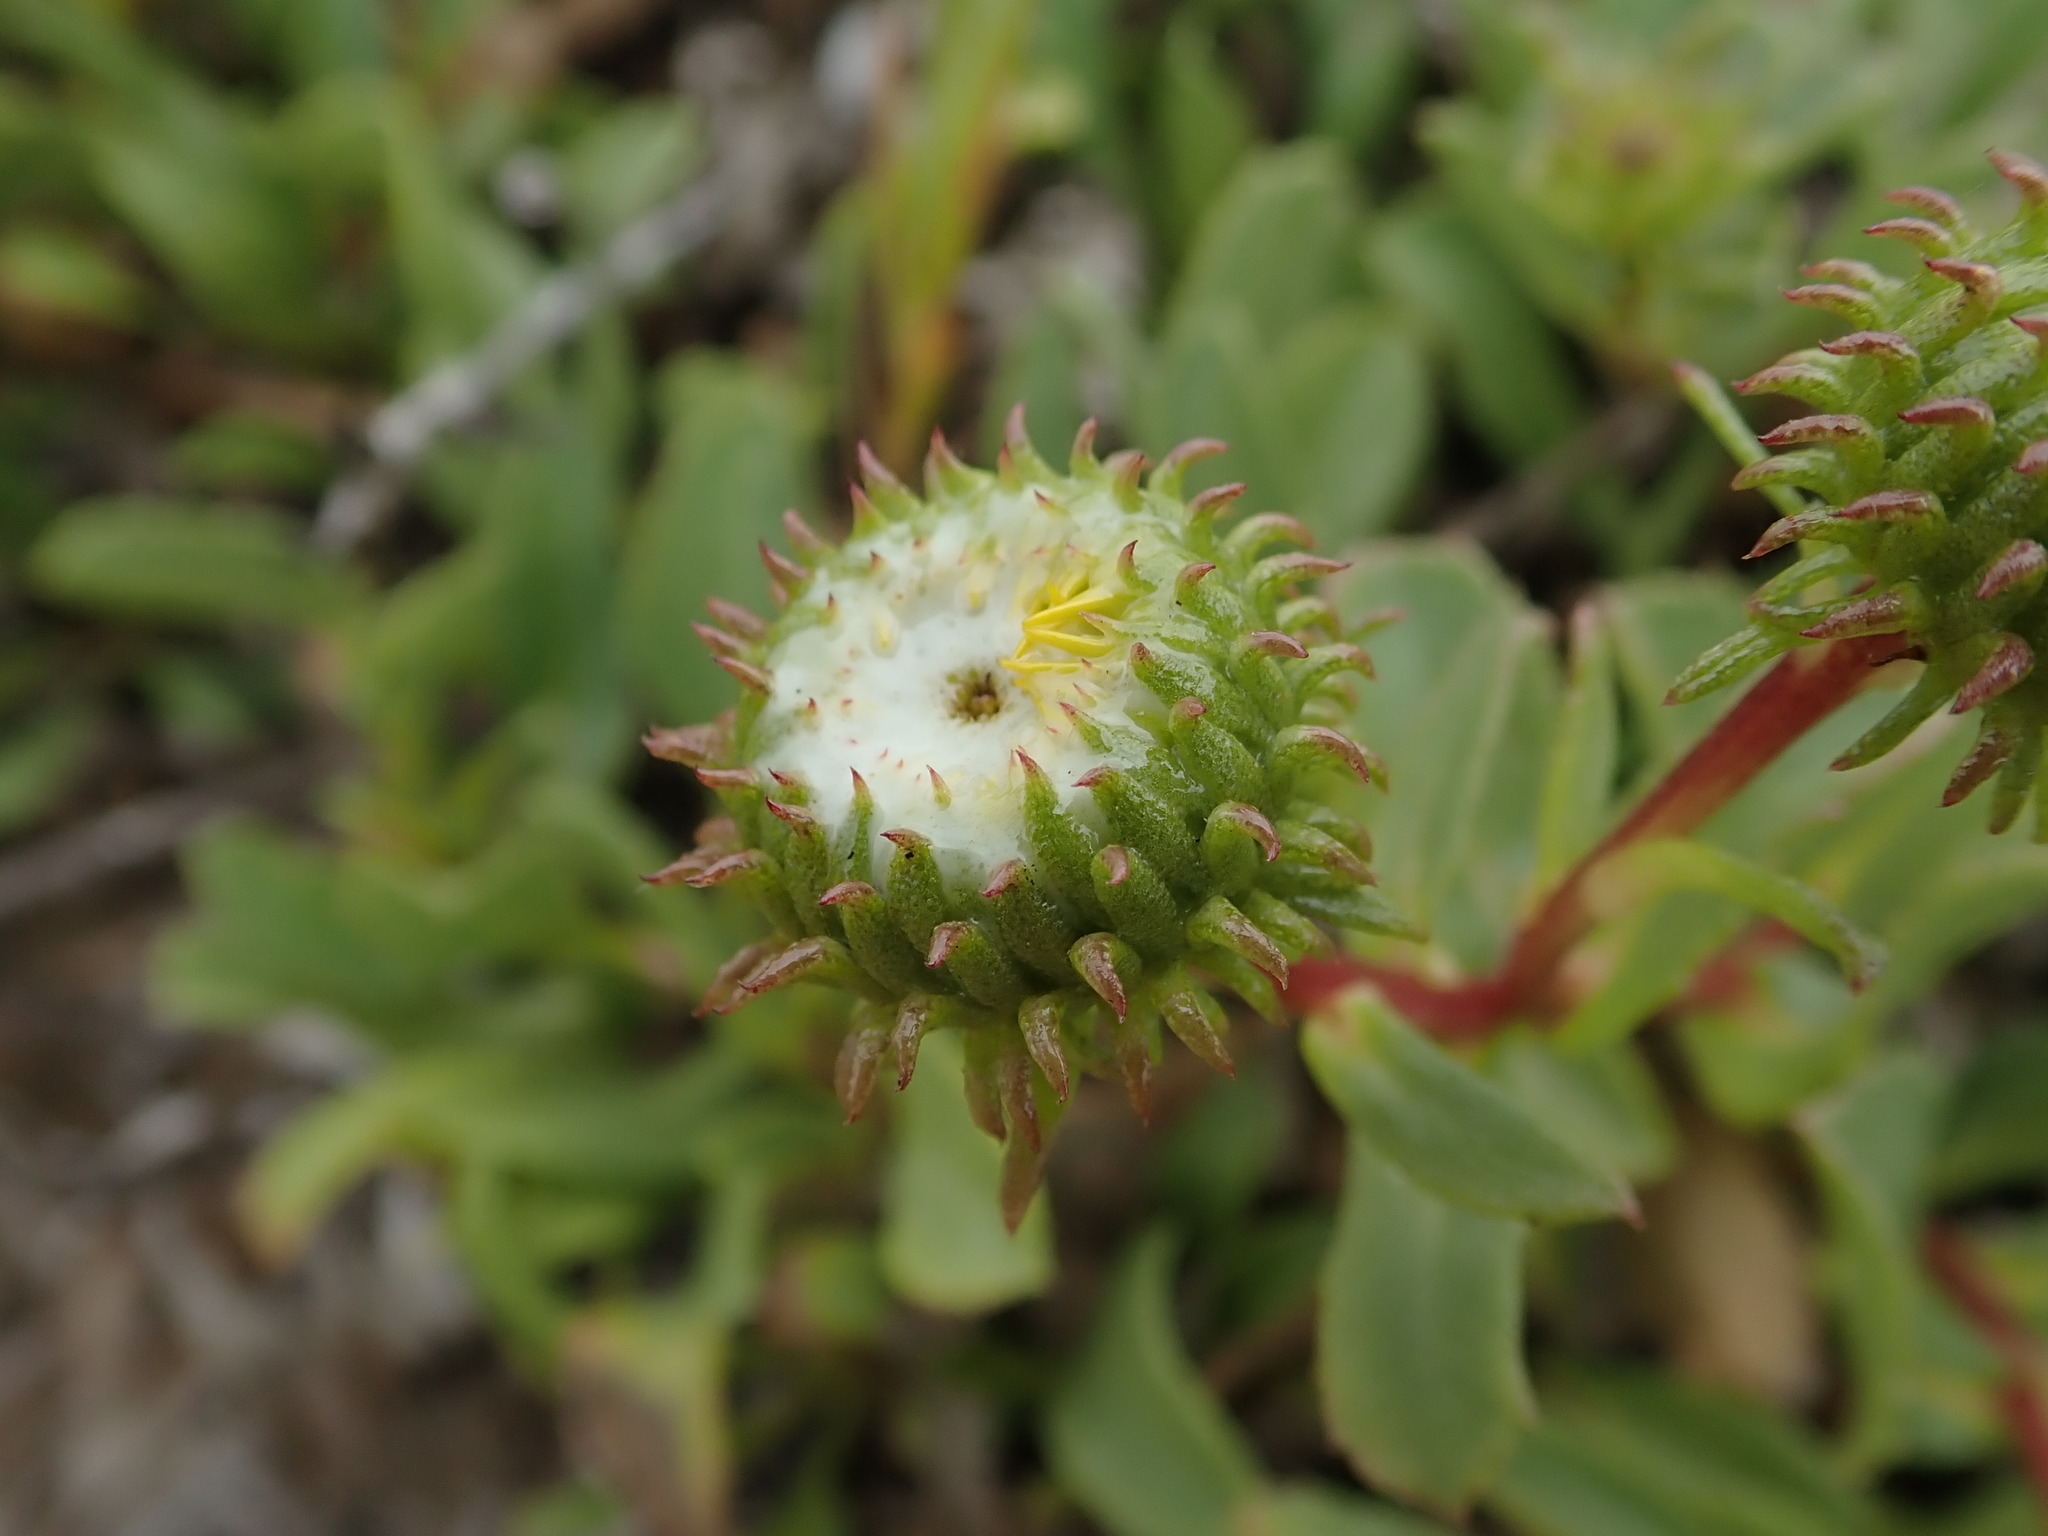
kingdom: Plantae
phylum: Tracheophyta
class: Magnoliopsida
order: Asterales
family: Asteraceae
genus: Grindelia
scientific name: Grindelia hirsutula
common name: Hairy gumweed
